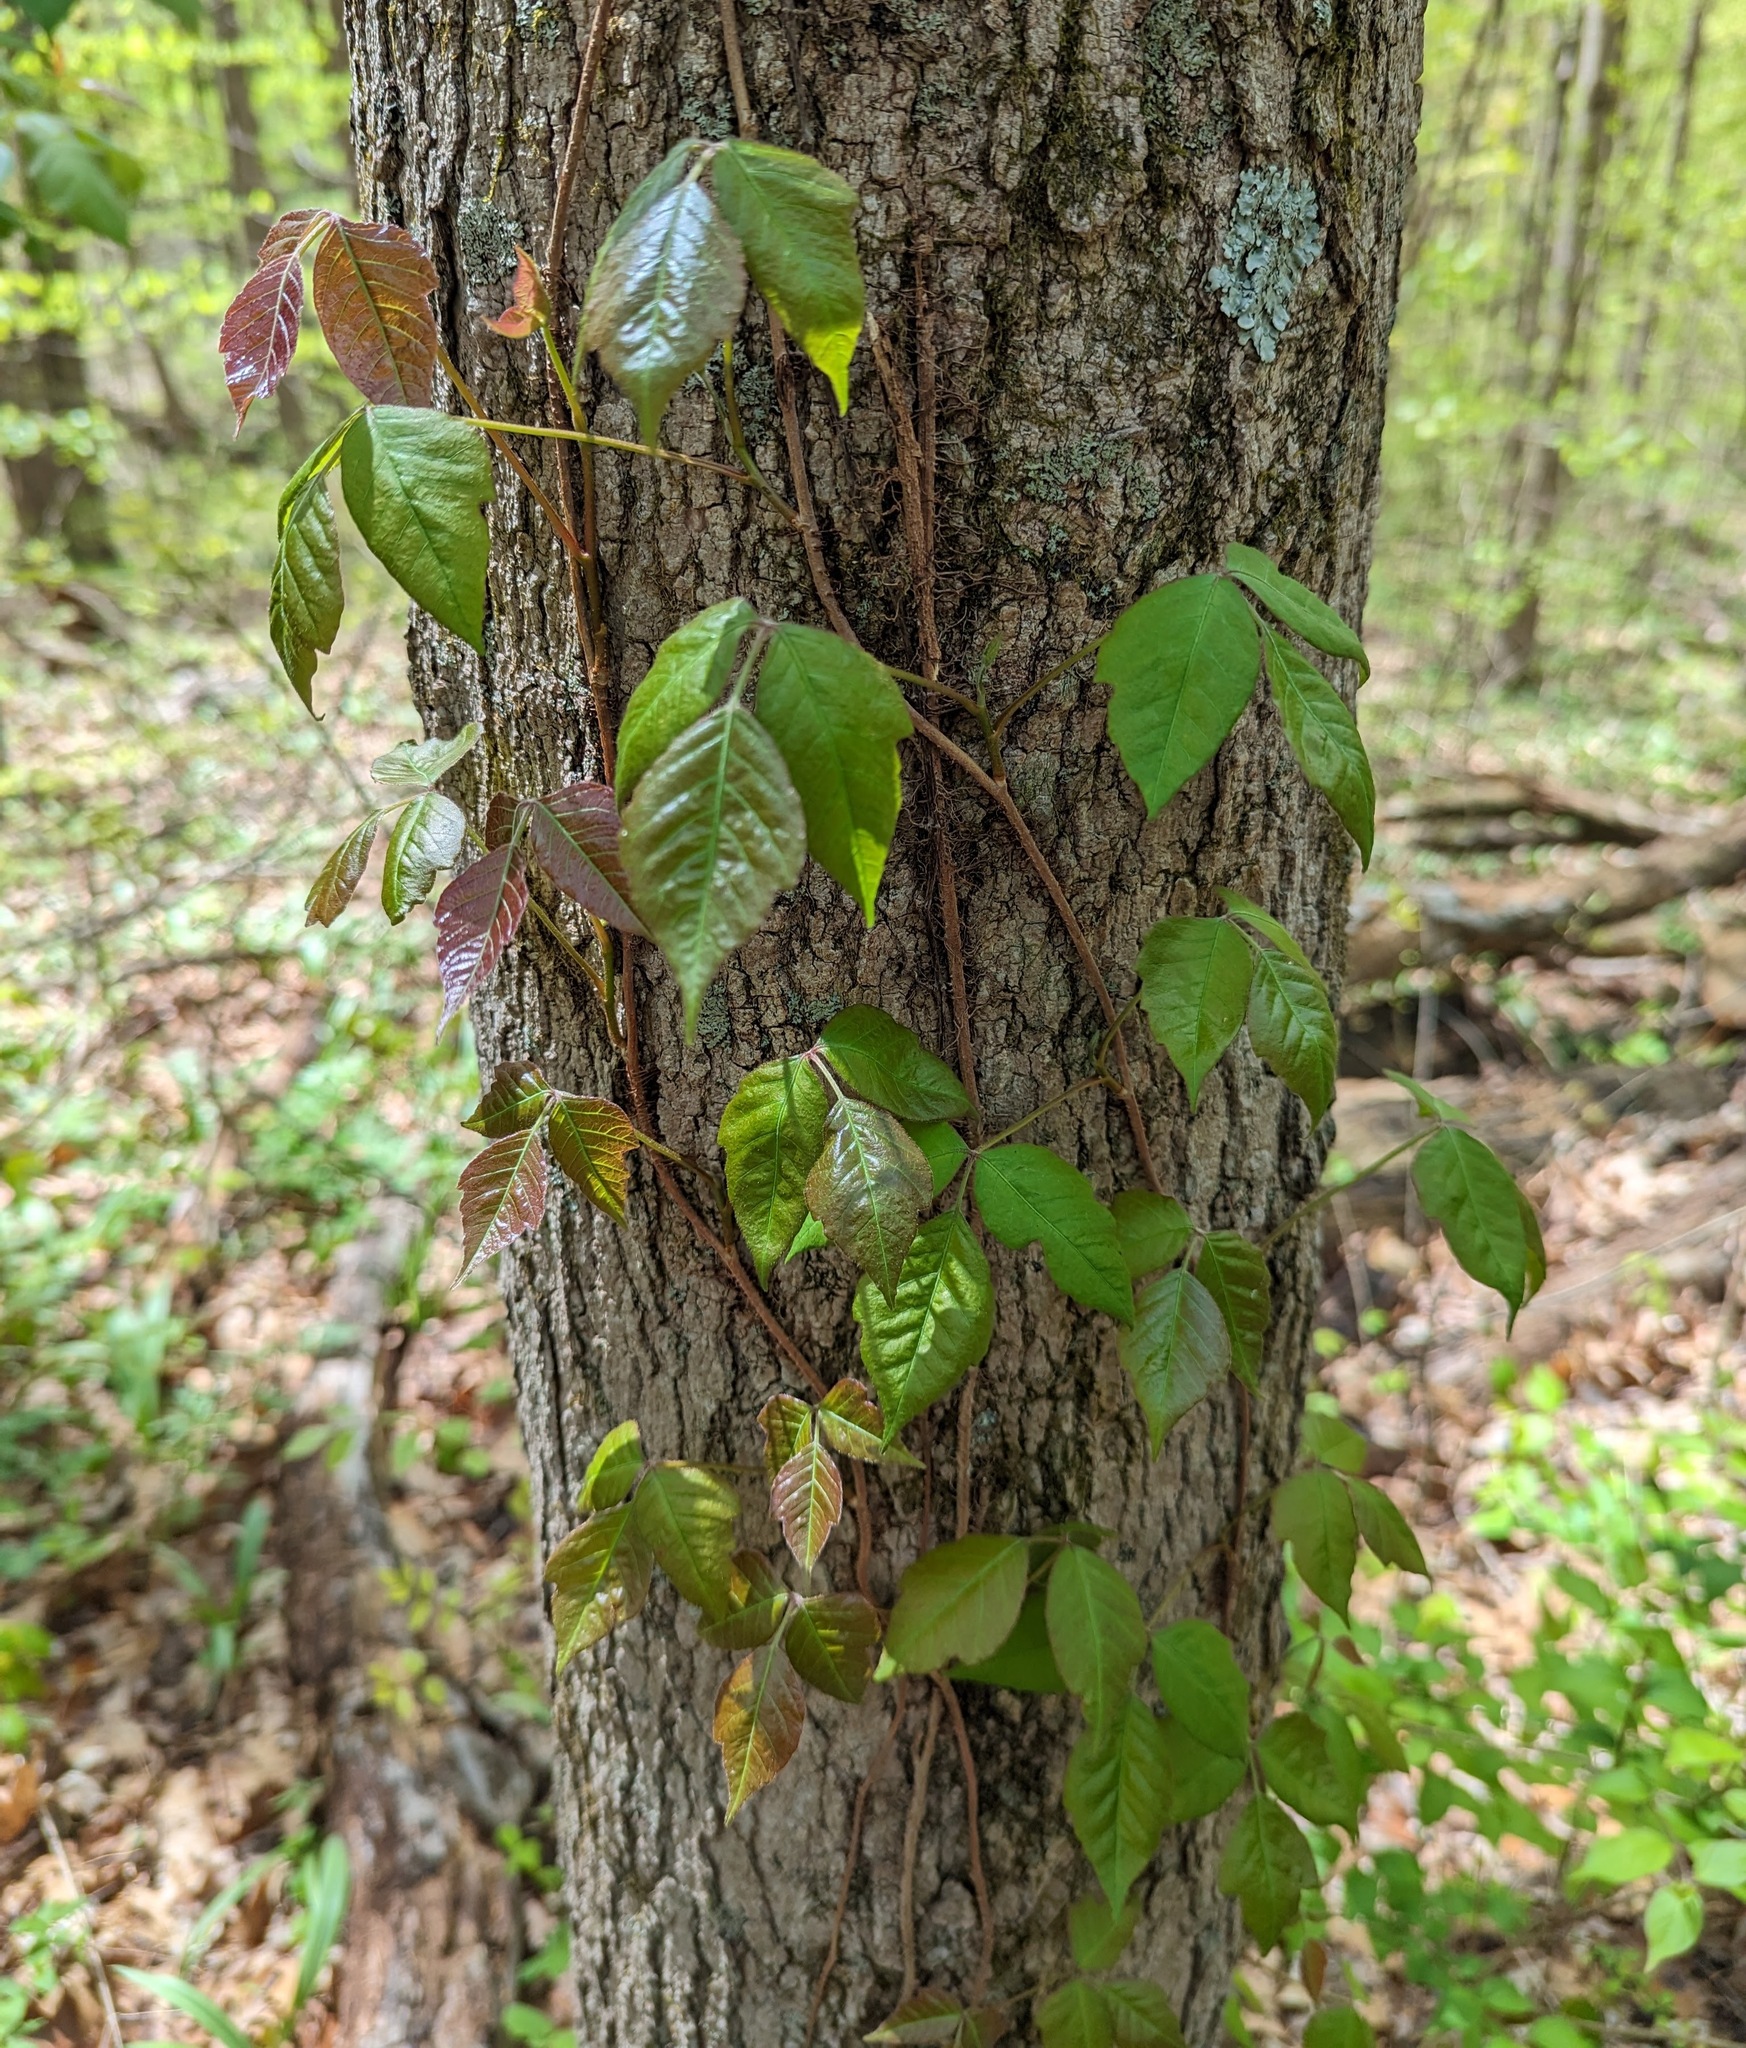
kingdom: Plantae
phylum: Tracheophyta
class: Magnoliopsida
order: Sapindales
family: Anacardiaceae
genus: Toxicodendron
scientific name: Toxicodendron radicans
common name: Poison ivy
